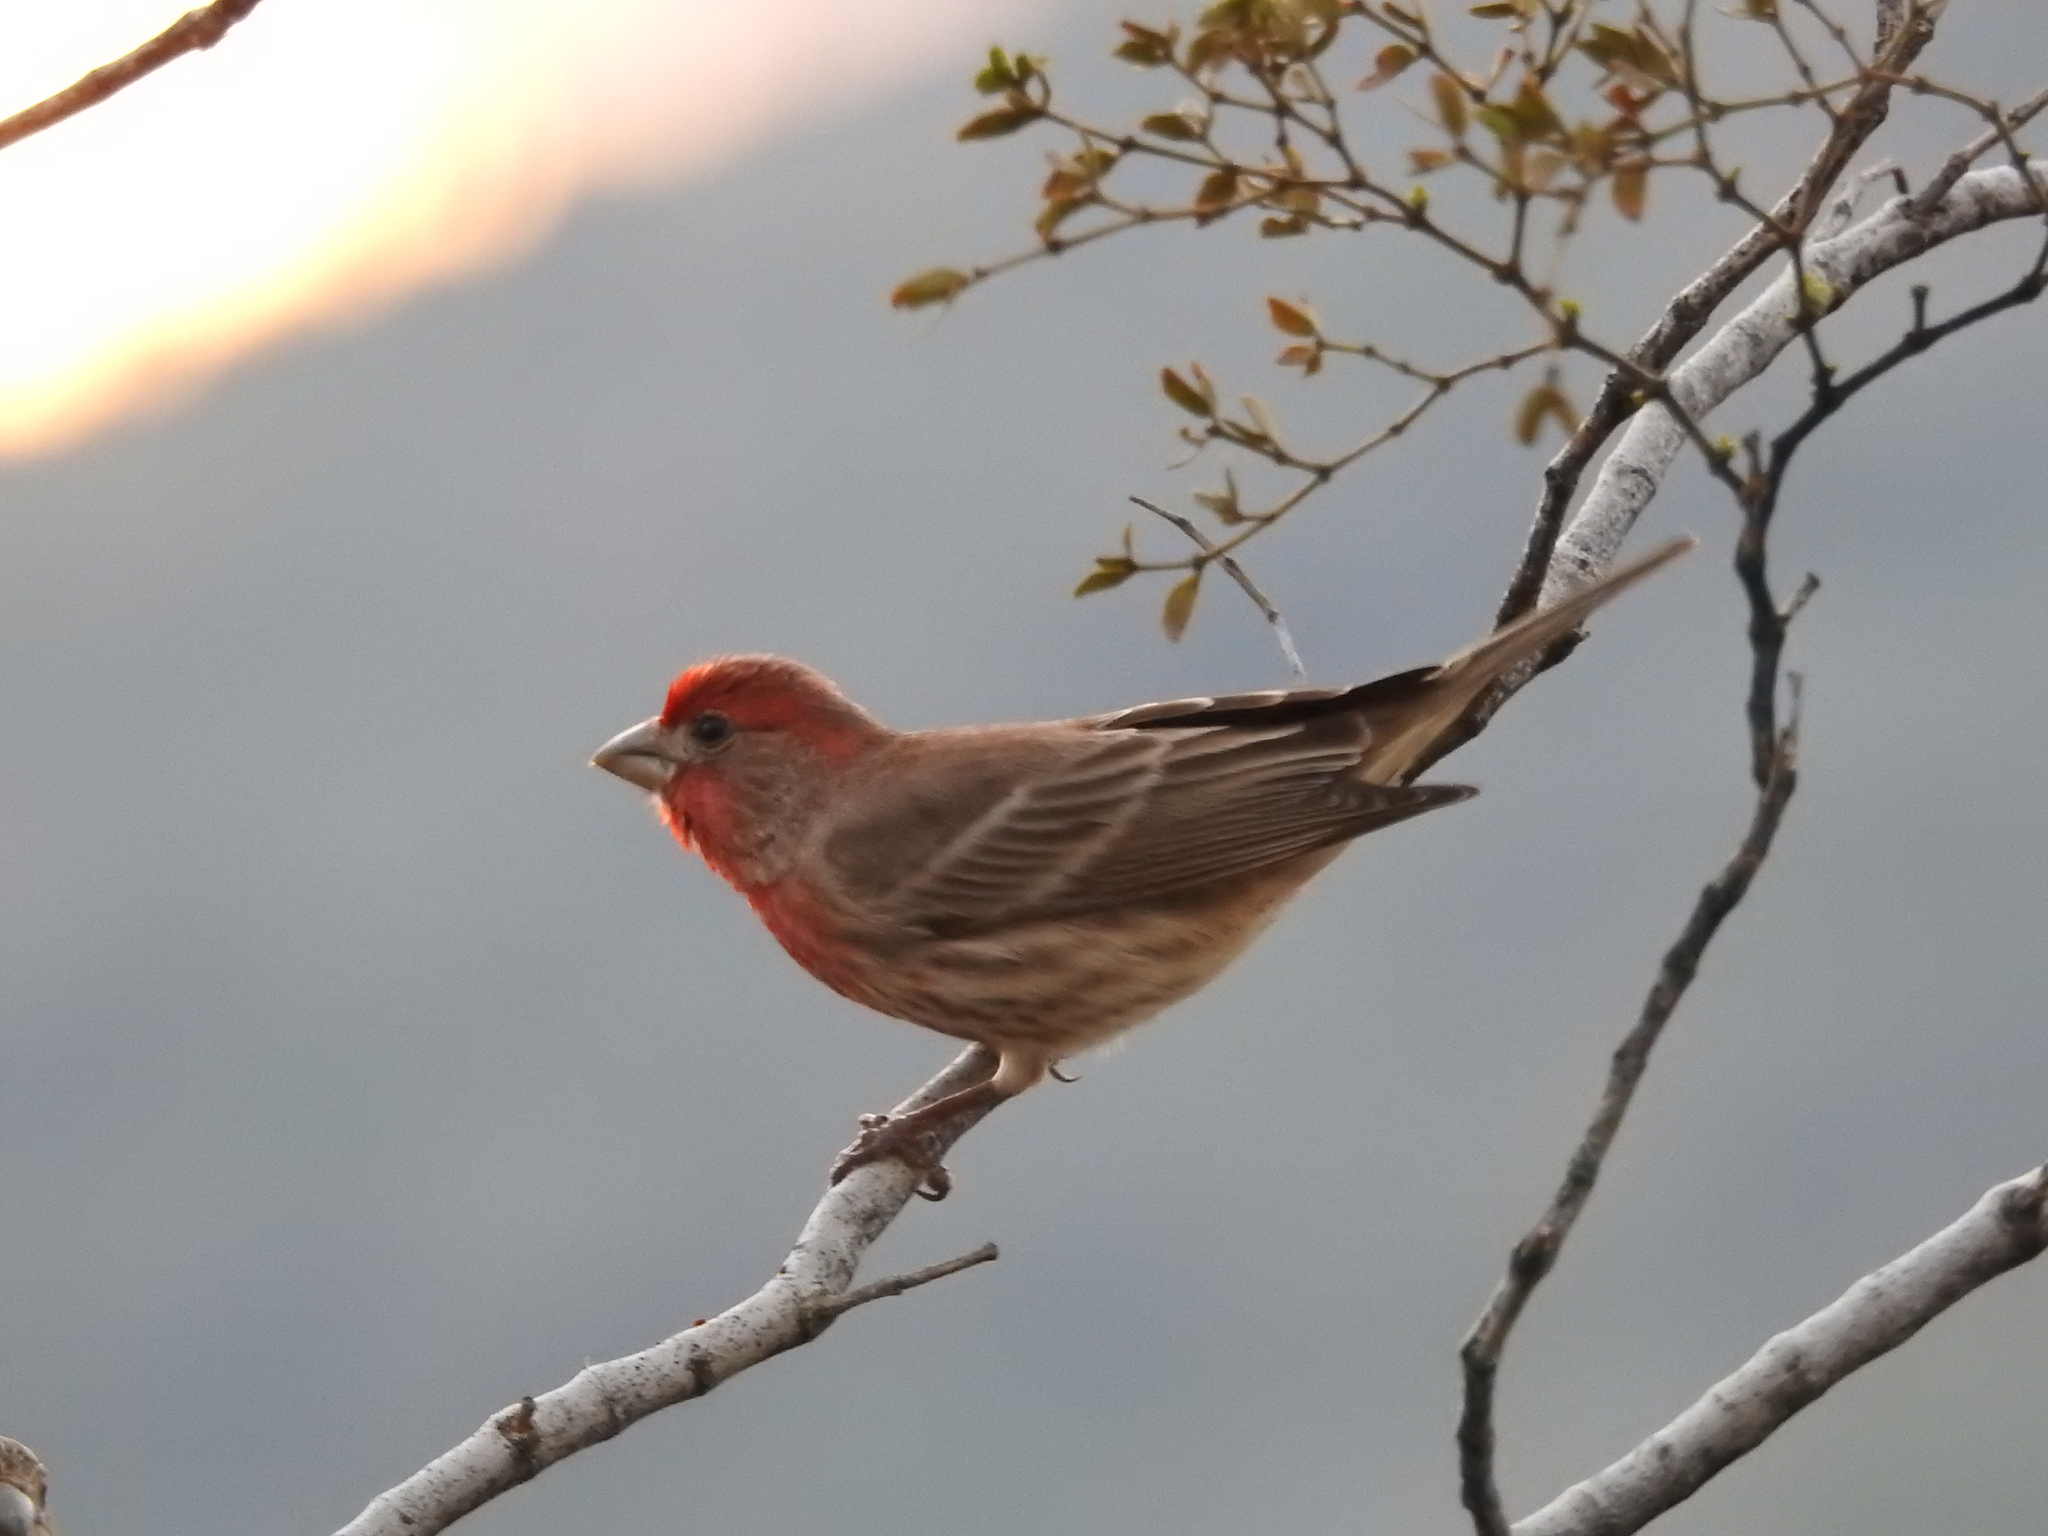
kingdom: Animalia
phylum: Chordata
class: Aves
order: Passeriformes
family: Fringillidae
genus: Haemorhous
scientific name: Haemorhous mexicanus
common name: House finch
